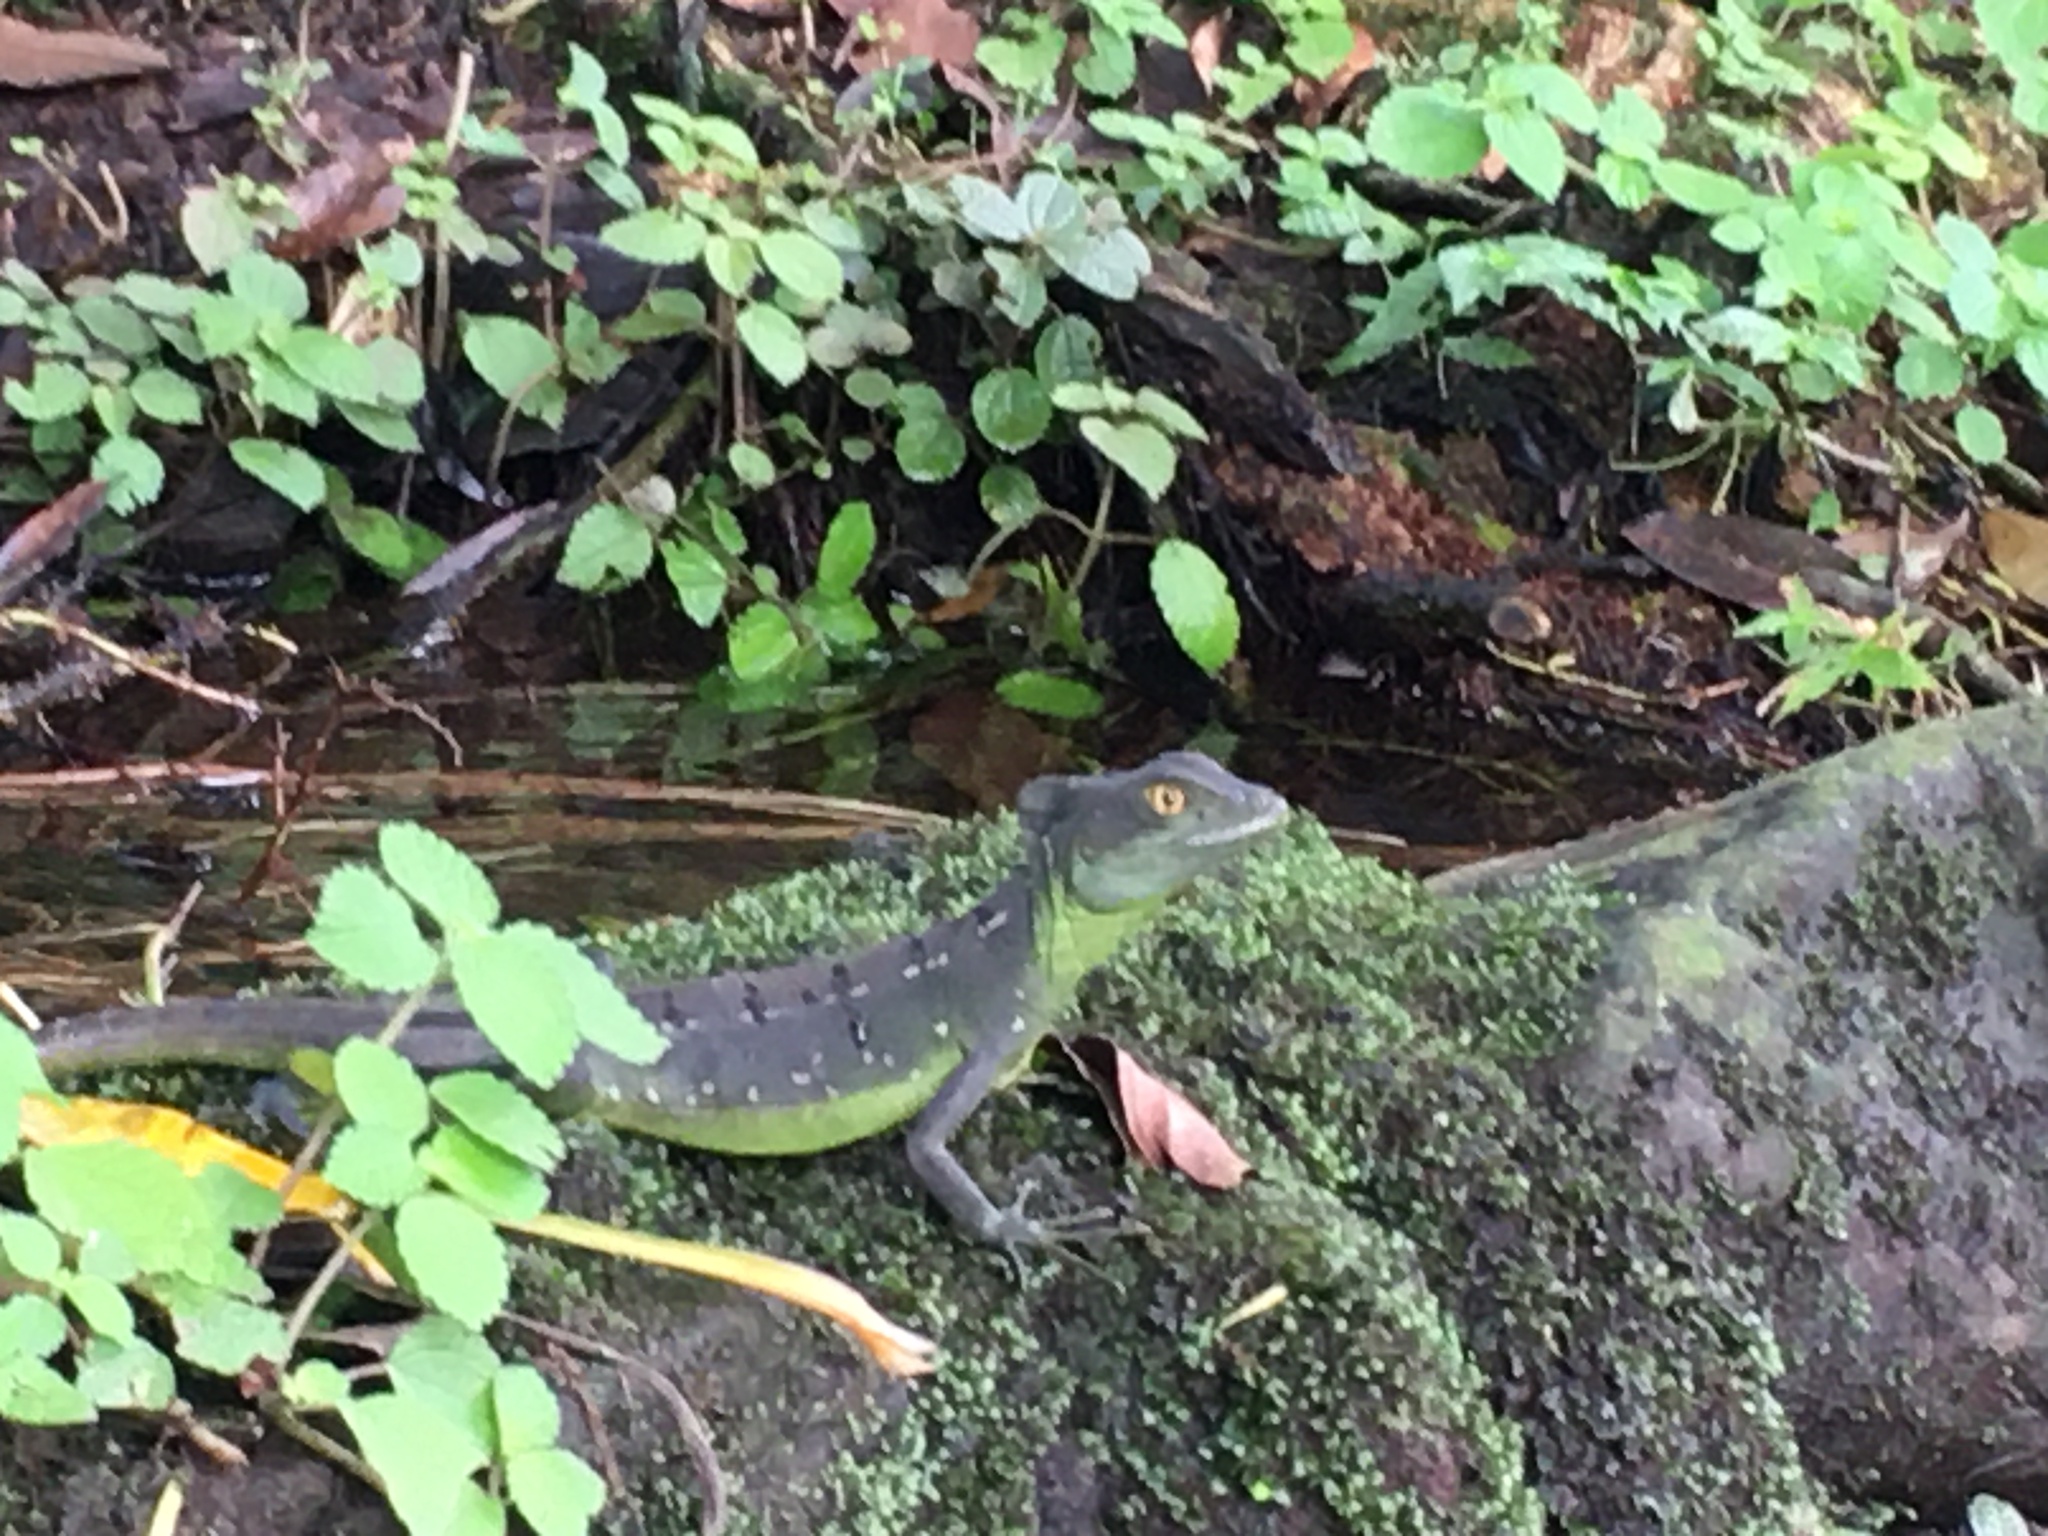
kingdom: Animalia
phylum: Chordata
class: Squamata
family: Corytophanidae
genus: Basiliscus
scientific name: Basiliscus plumifrons
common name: Green basilisk
